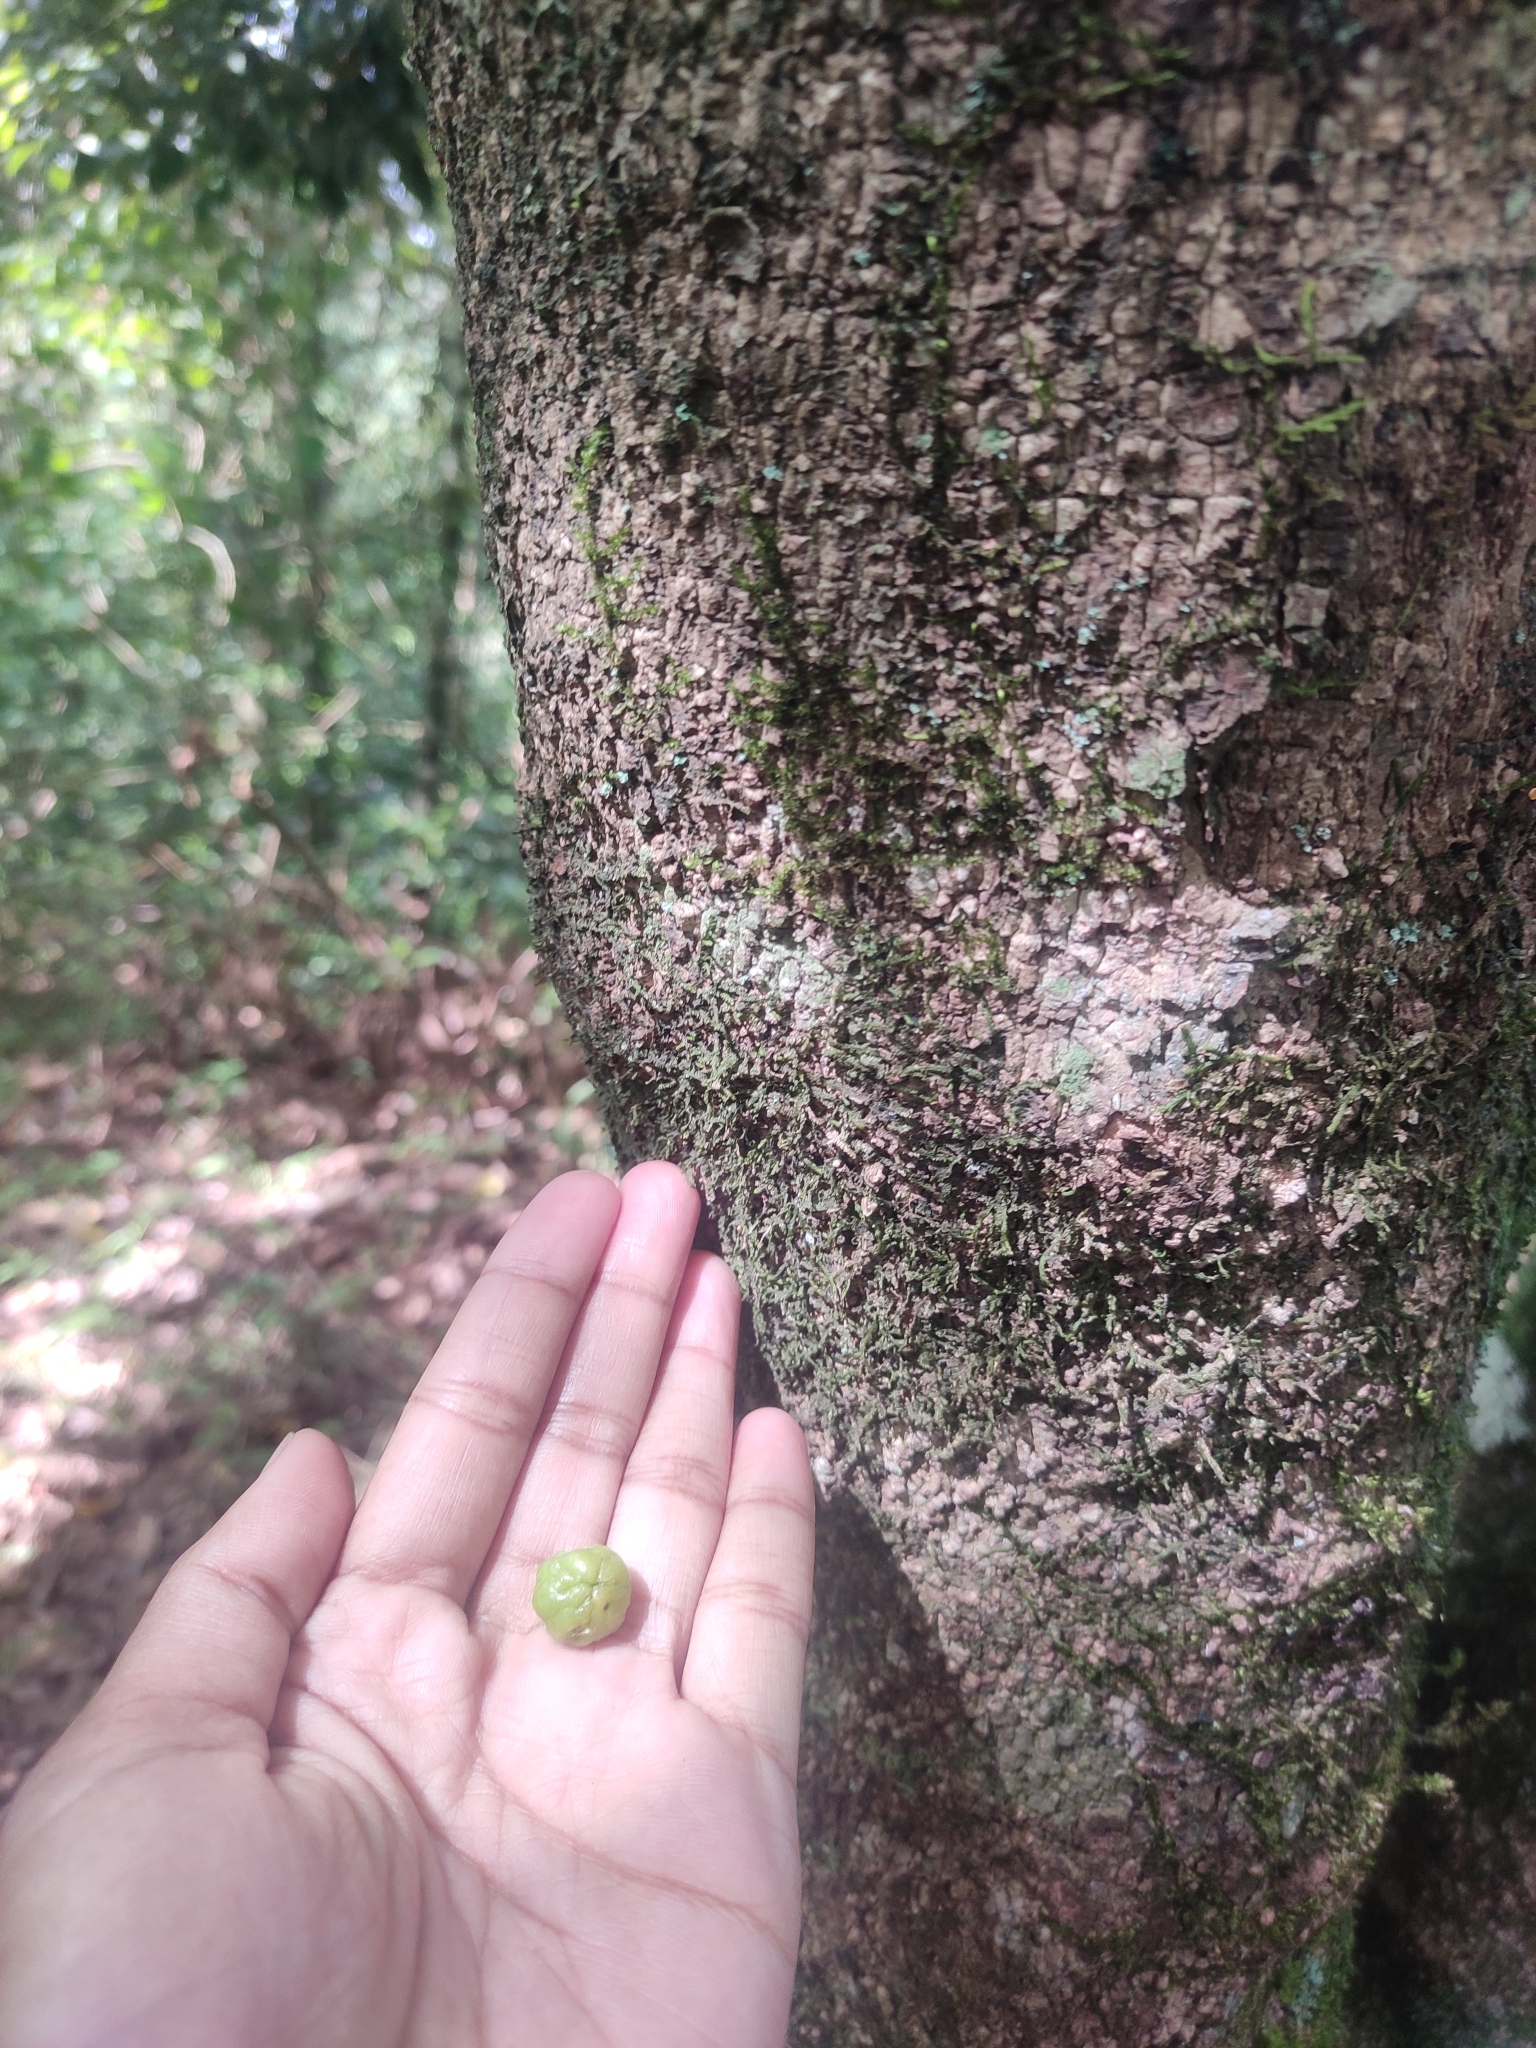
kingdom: Plantae
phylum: Tracheophyta
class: Magnoliopsida
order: Sapindales
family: Rutaceae
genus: Acronychia
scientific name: Acronychia pedunculata
